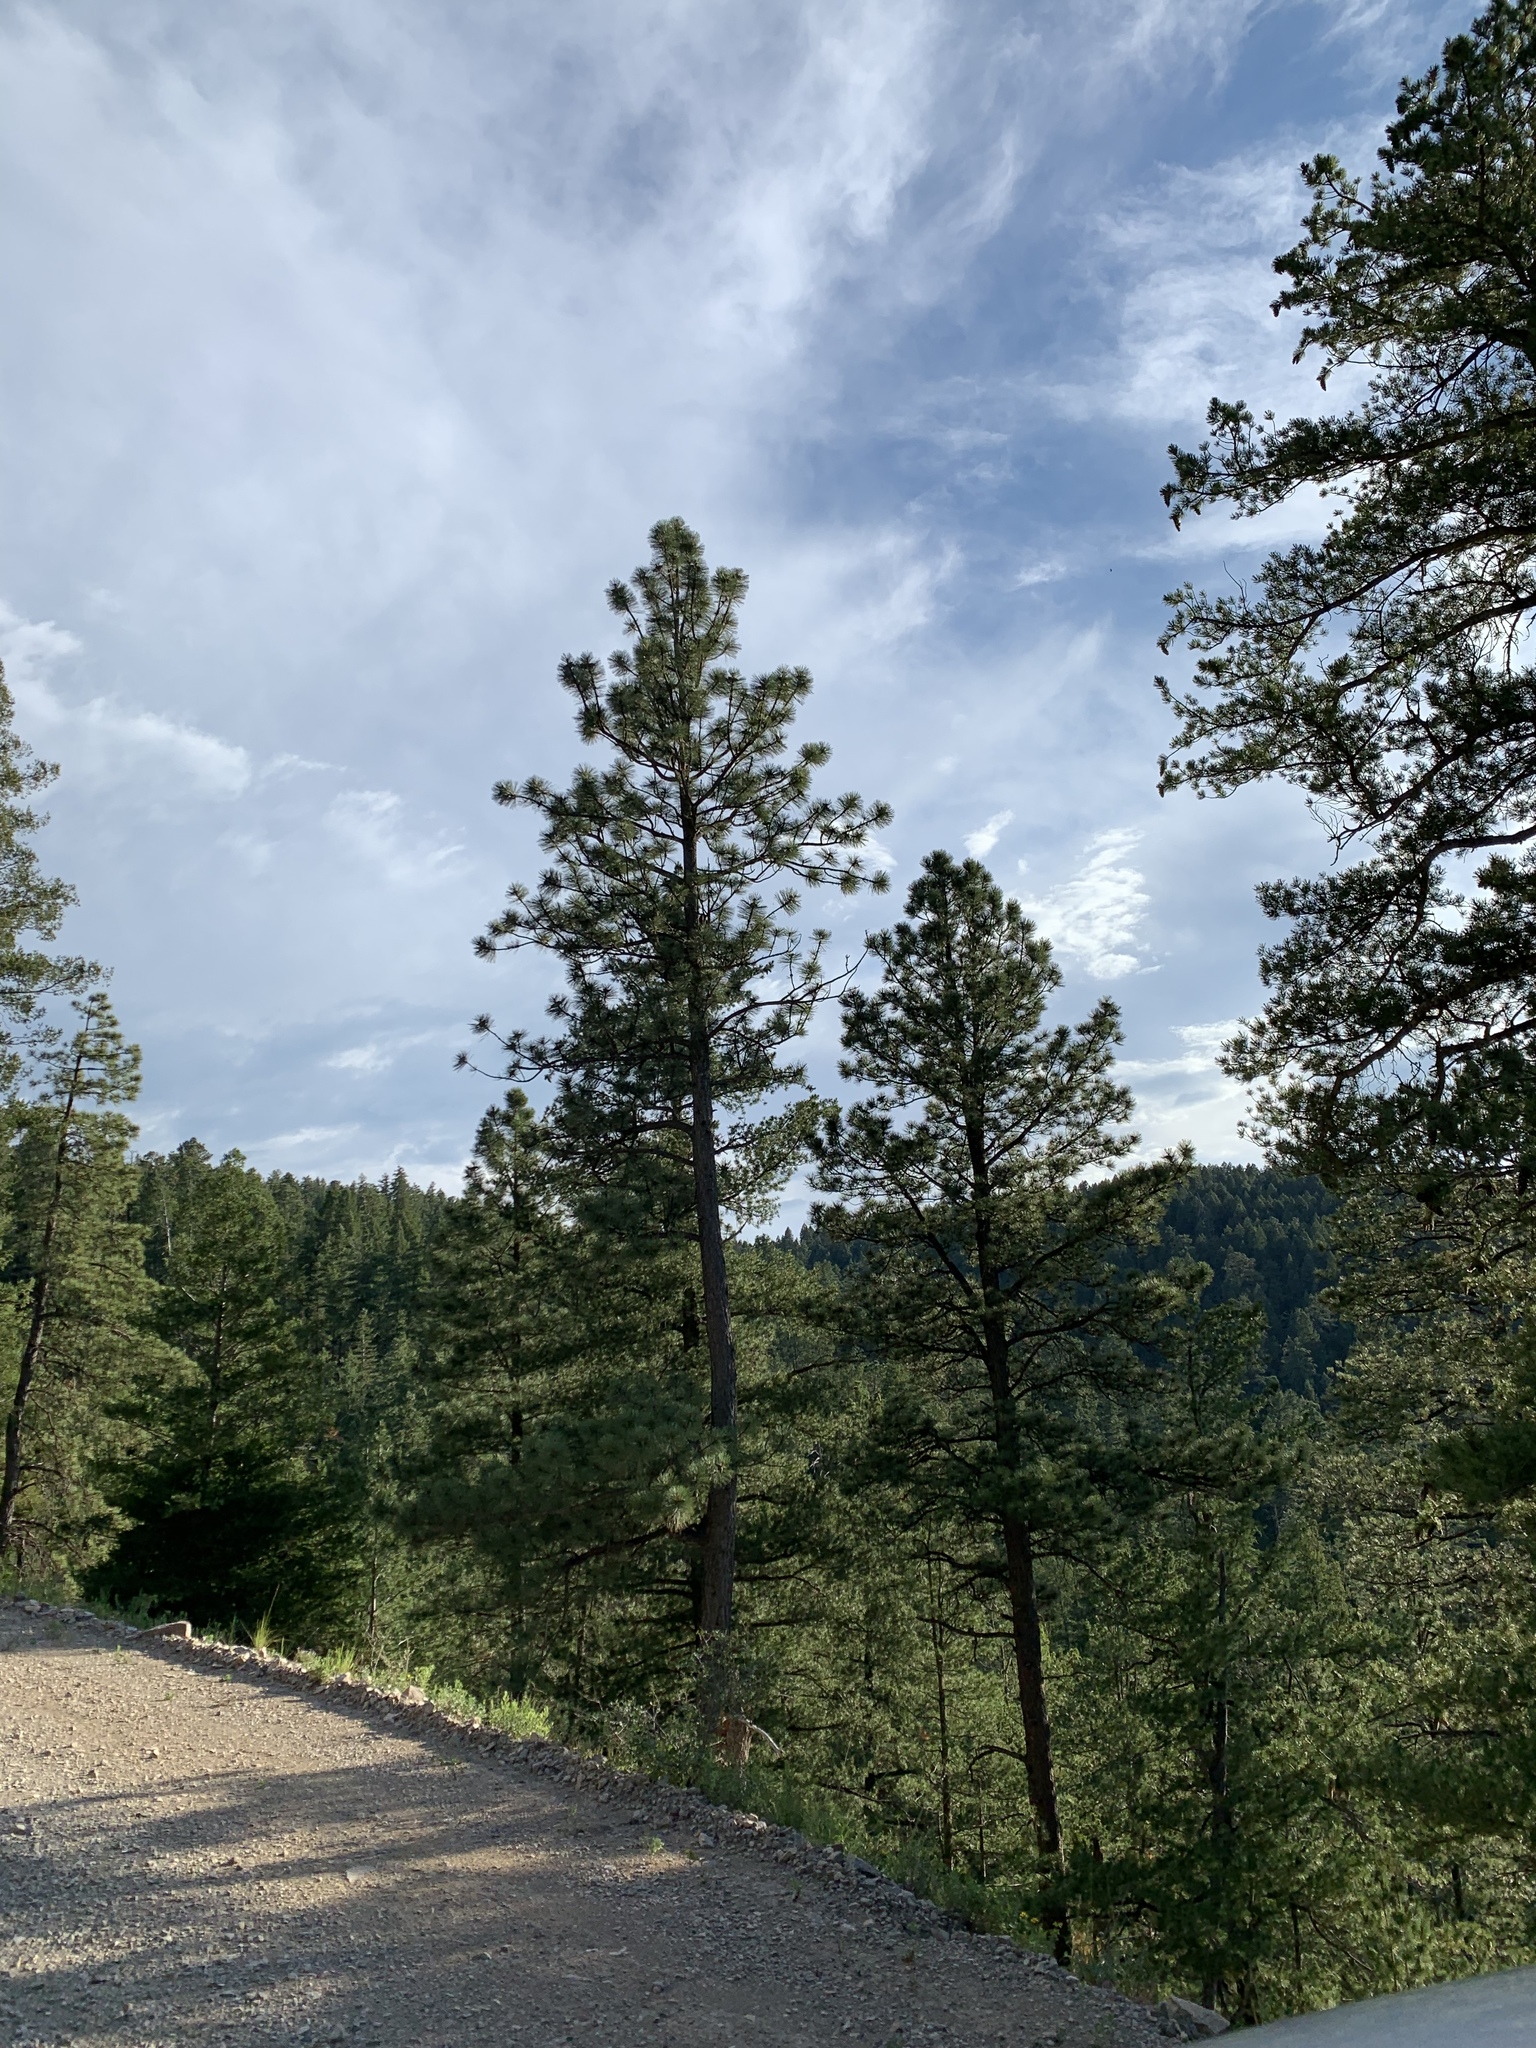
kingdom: Plantae
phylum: Tracheophyta
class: Pinopsida
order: Pinales
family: Pinaceae
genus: Pinus
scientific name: Pinus ponderosa
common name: Western yellow-pine
